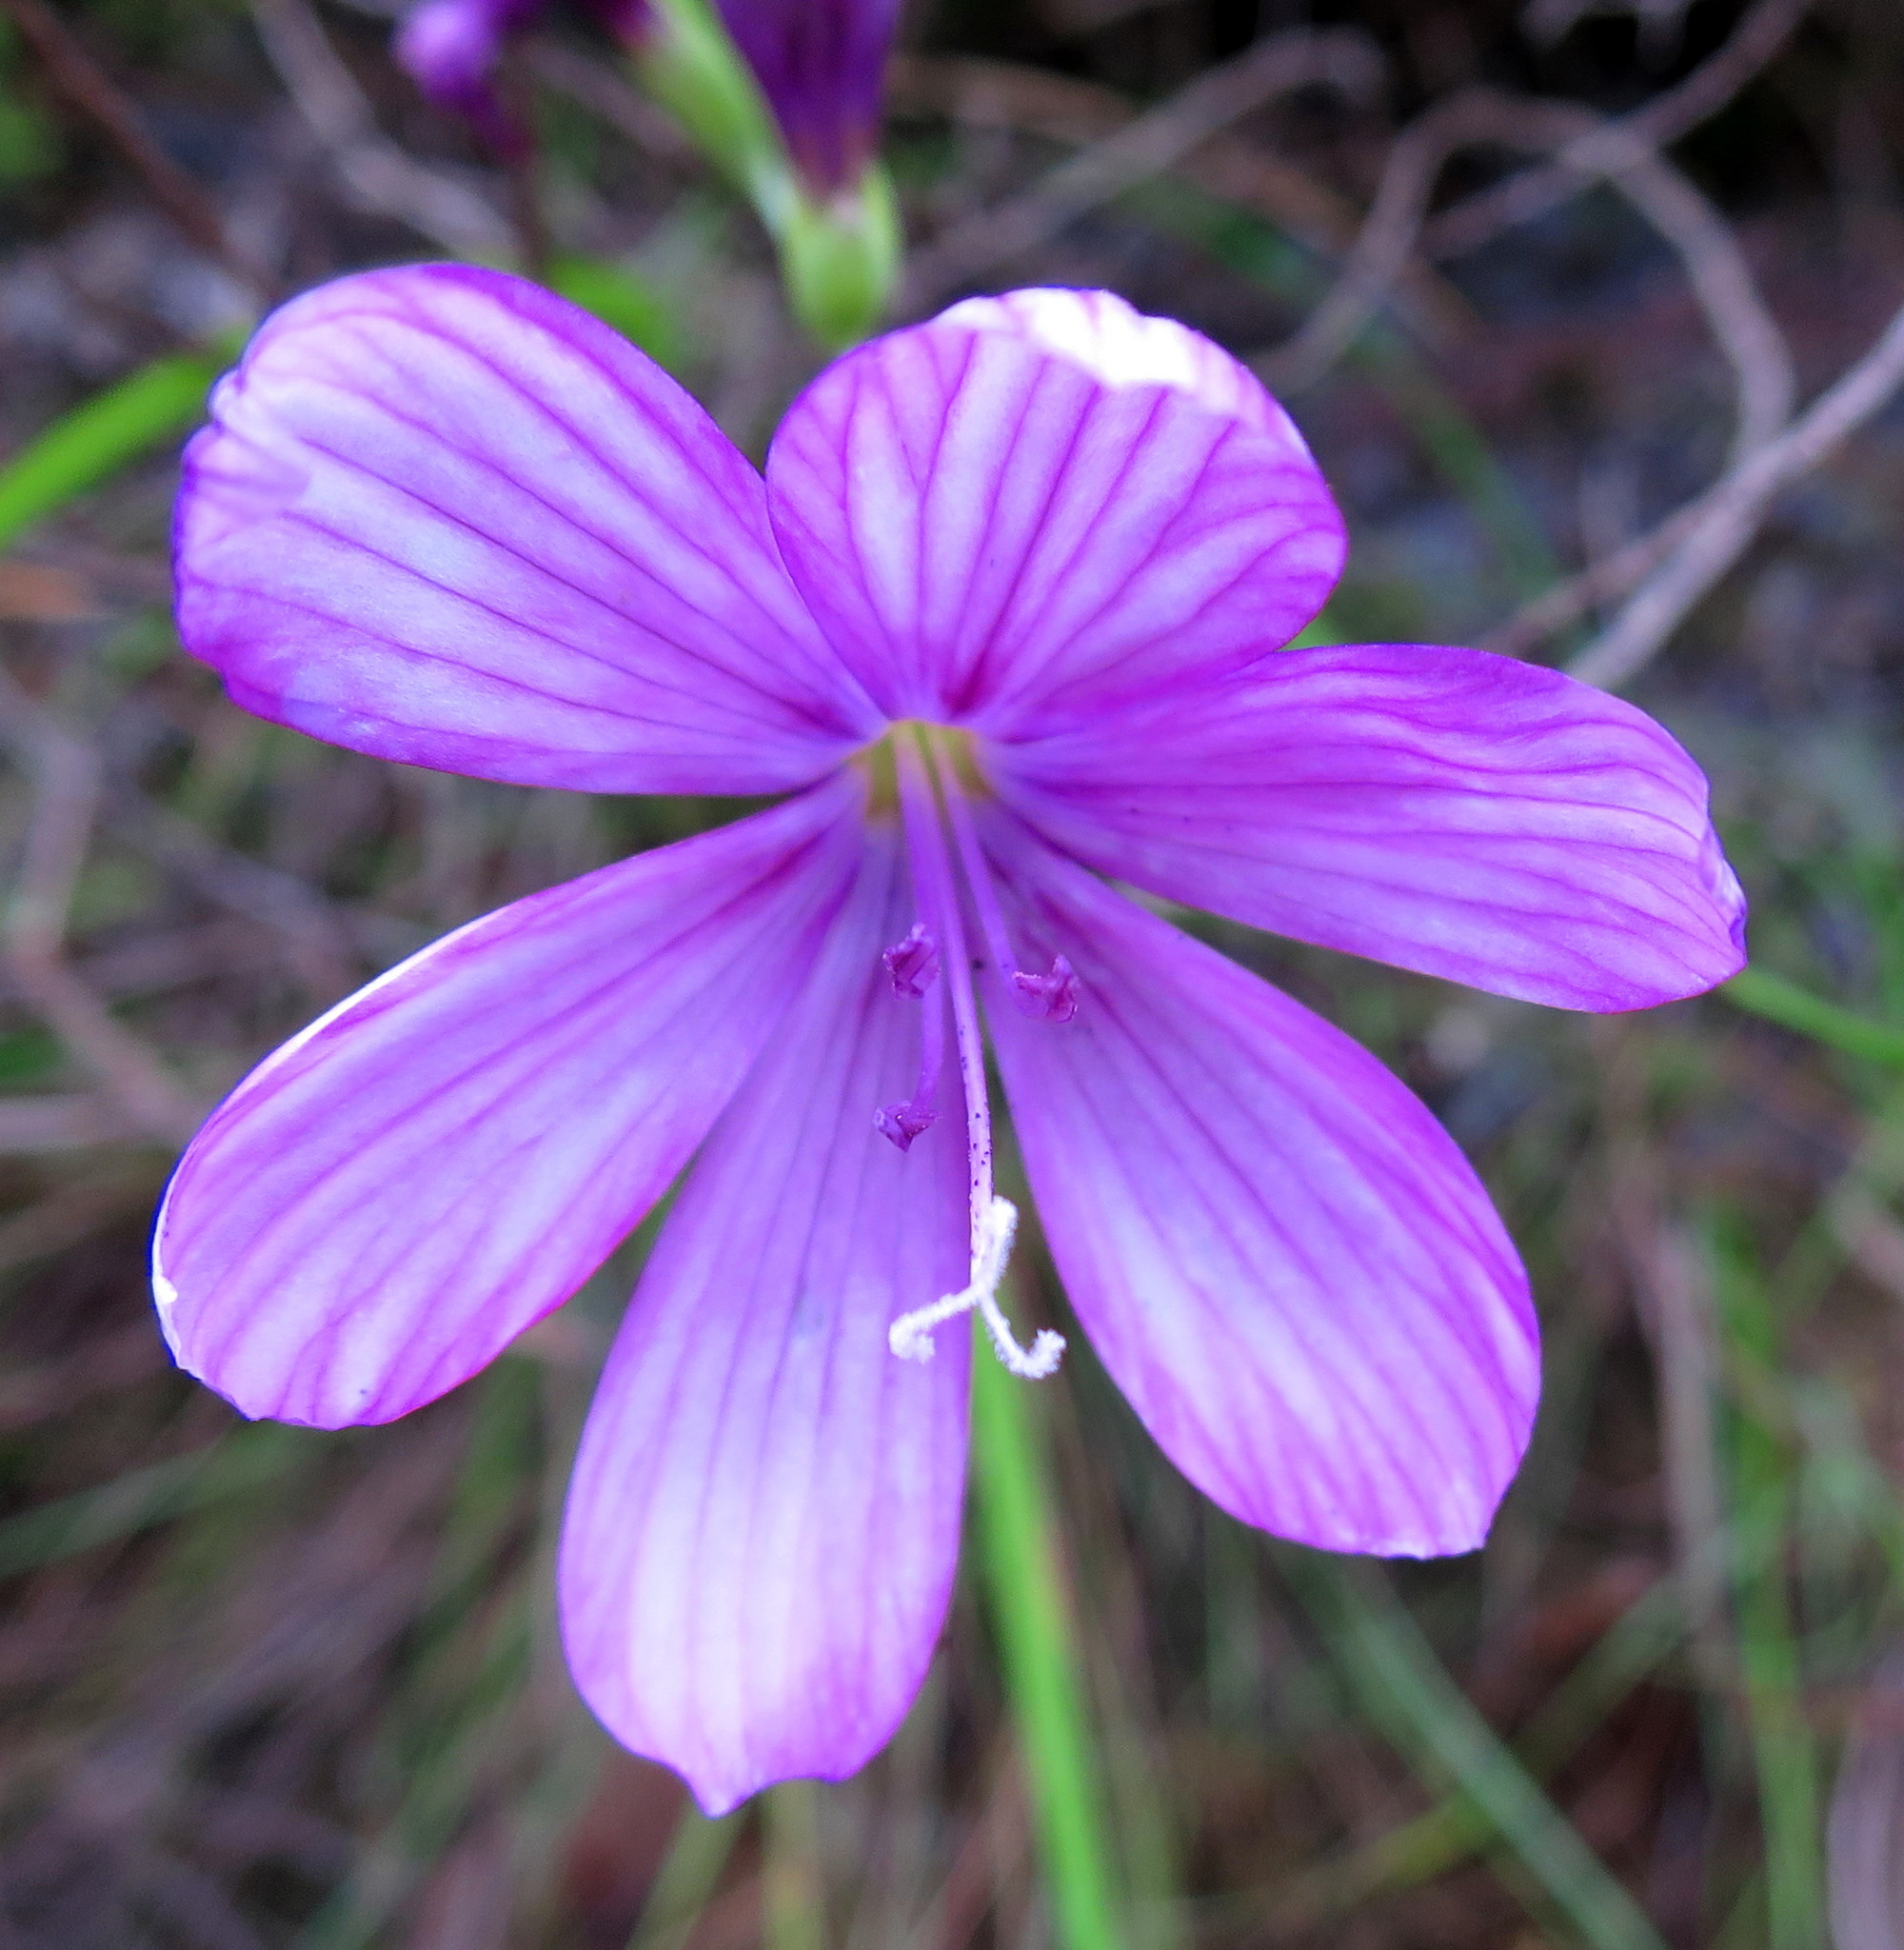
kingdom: Plantae
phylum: Tracheophyta
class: Liliopsida
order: Asparagales
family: Iridaceae
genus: Geissorhiza
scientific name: Geissorhiza outeniquensis
